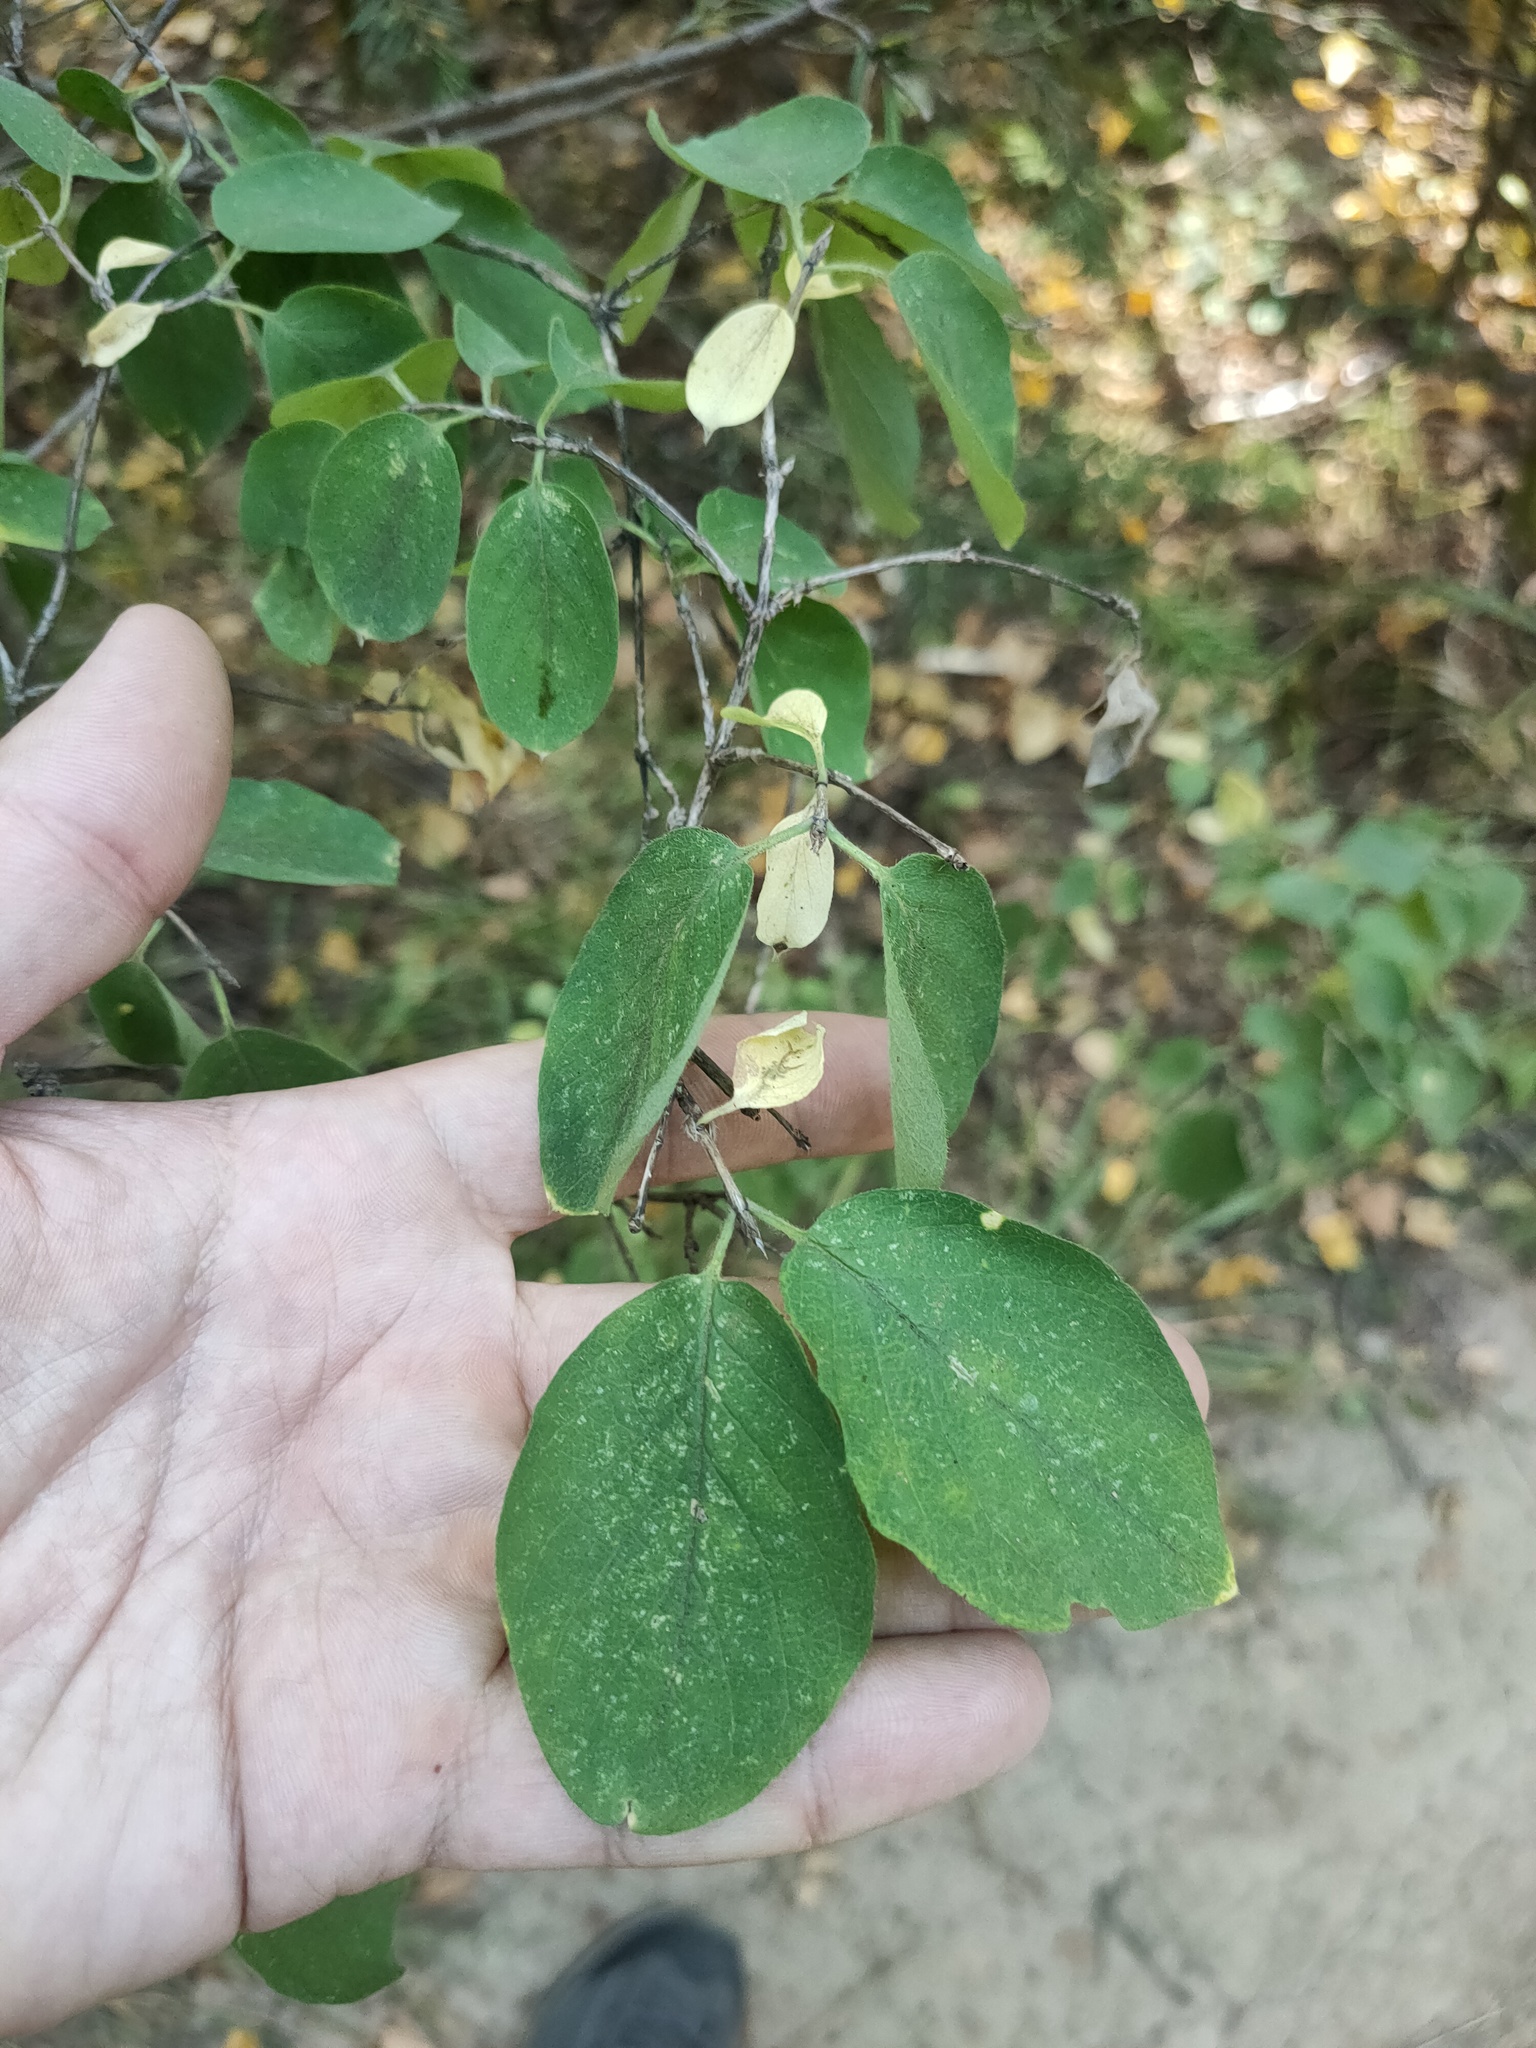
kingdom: Plantae
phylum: Tracheophyta
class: Magnoliopsida
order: Dipsacales
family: Caprifoliaceae
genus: Lonicera
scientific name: Lonicera xylosteum
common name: Fly honeysuckle
